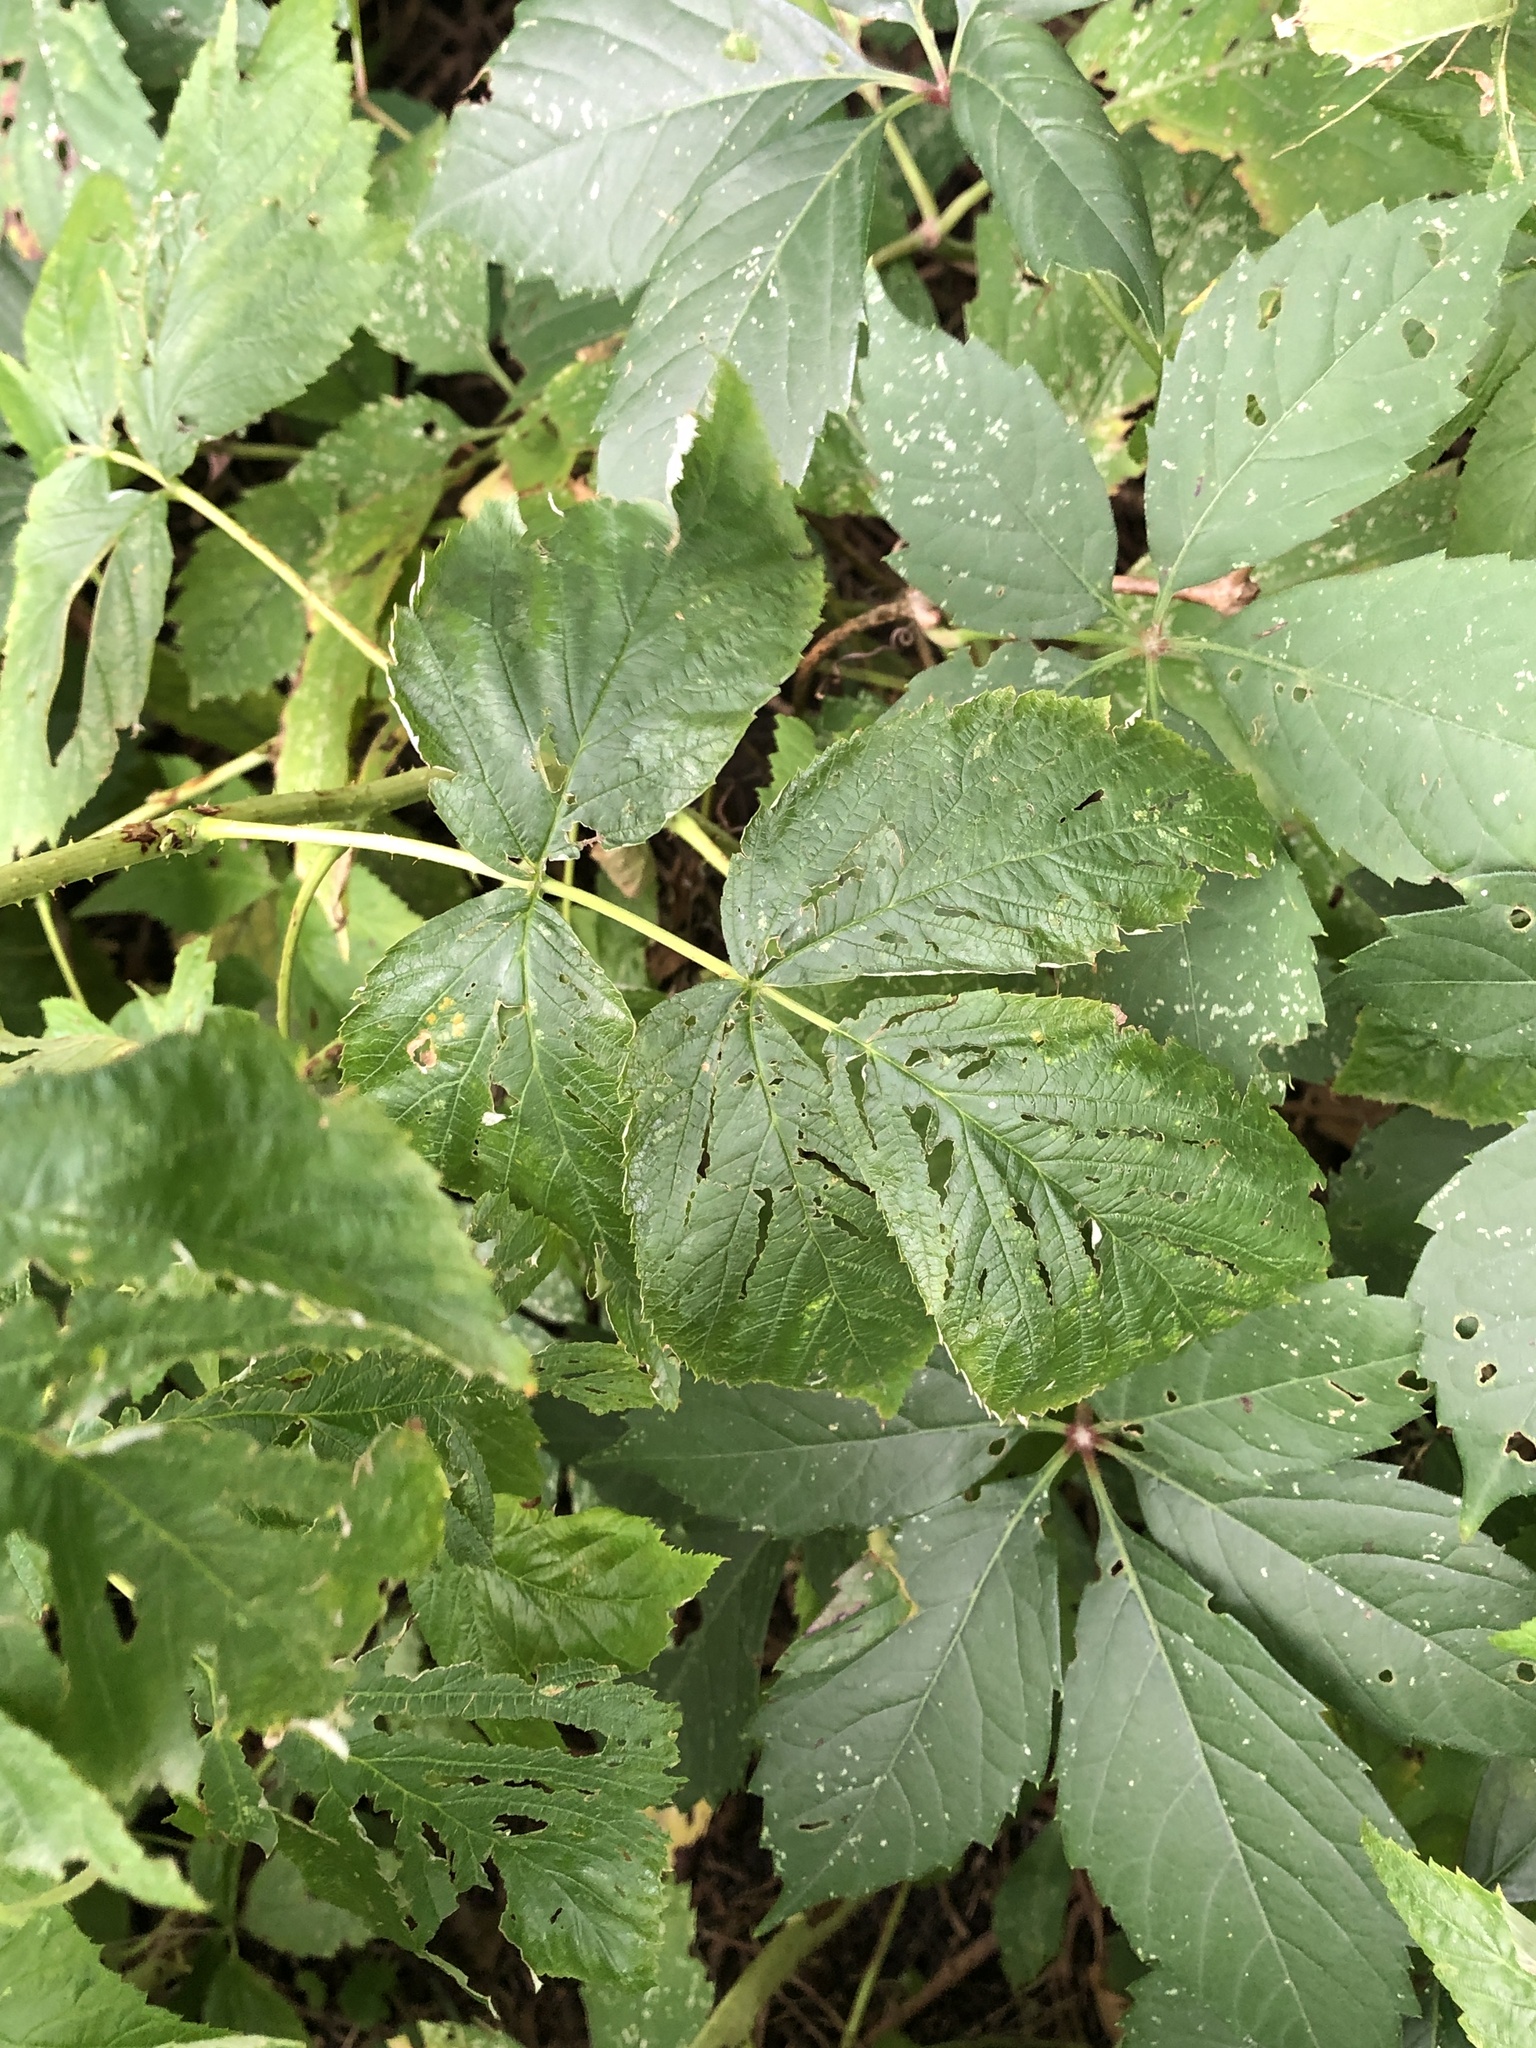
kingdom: Plantae
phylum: Tracheophyta
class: Magnoliopsida
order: Rosales
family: Rosaceae
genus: Rubus
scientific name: Rubus idaeus
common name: Raspberry
